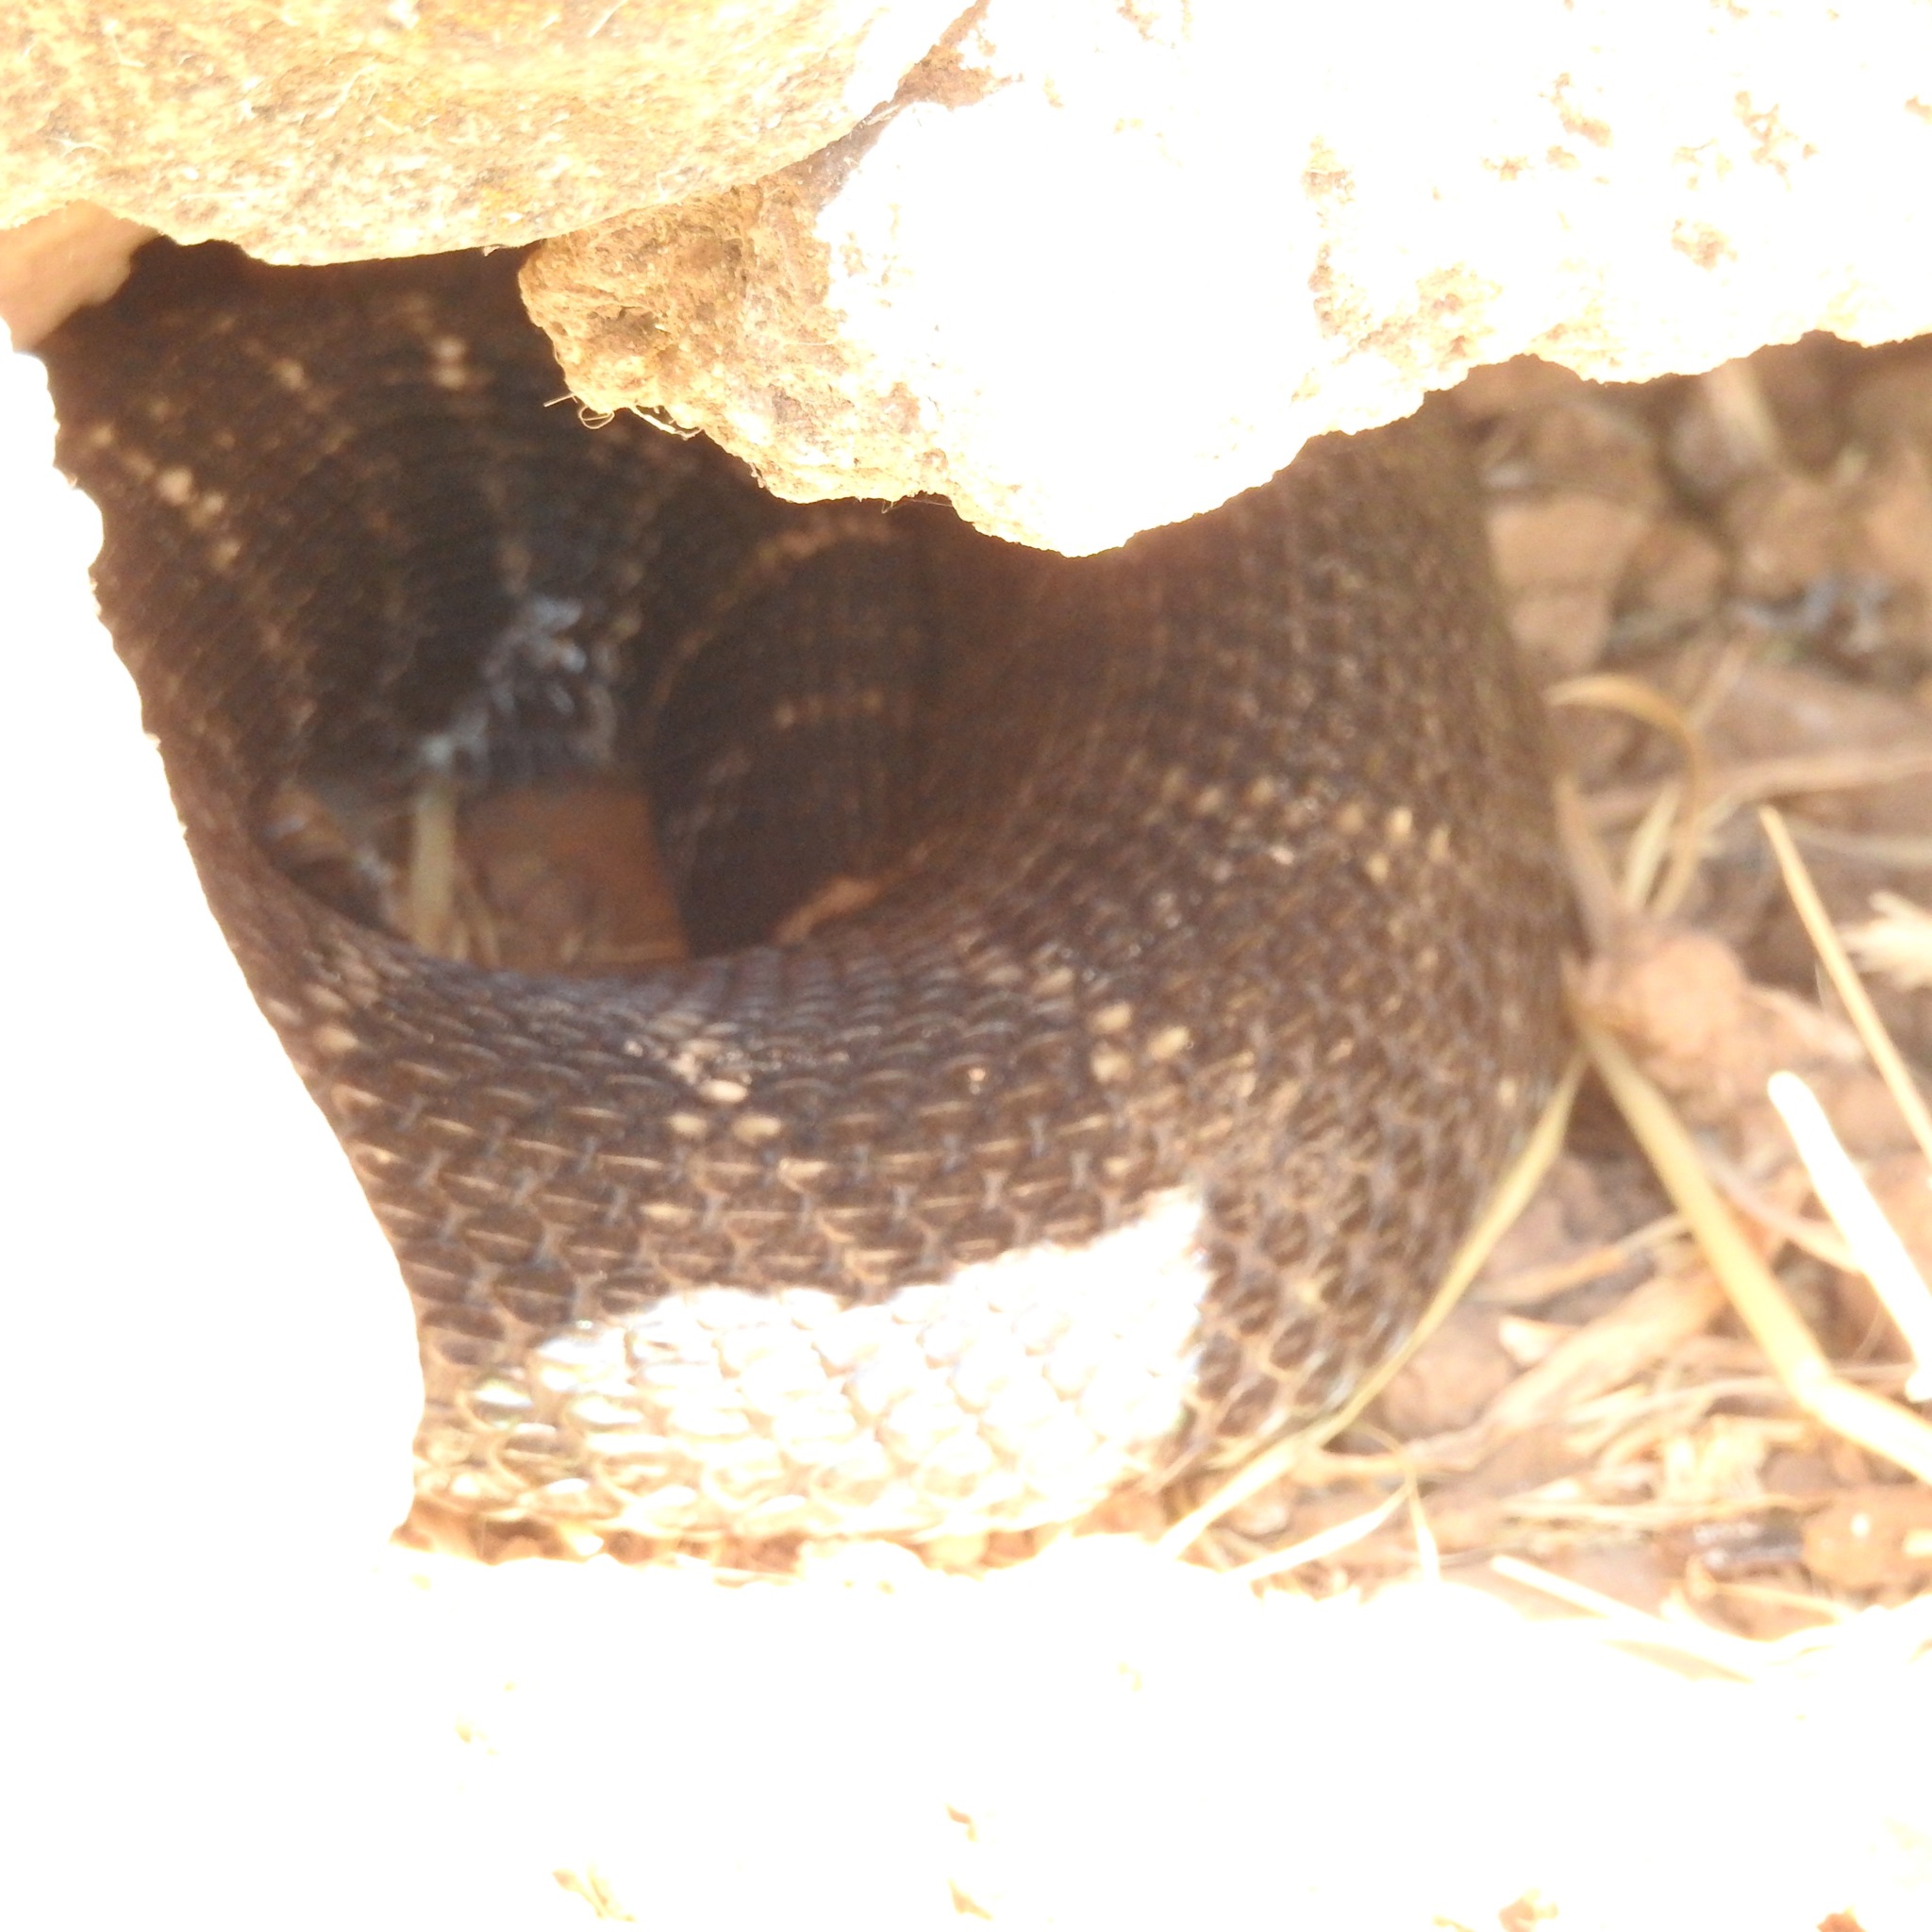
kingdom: Animalia
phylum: Chordata
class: Squamata
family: Viperidae
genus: Crotalus
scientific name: Crotalus oreganus
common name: Abyssus
